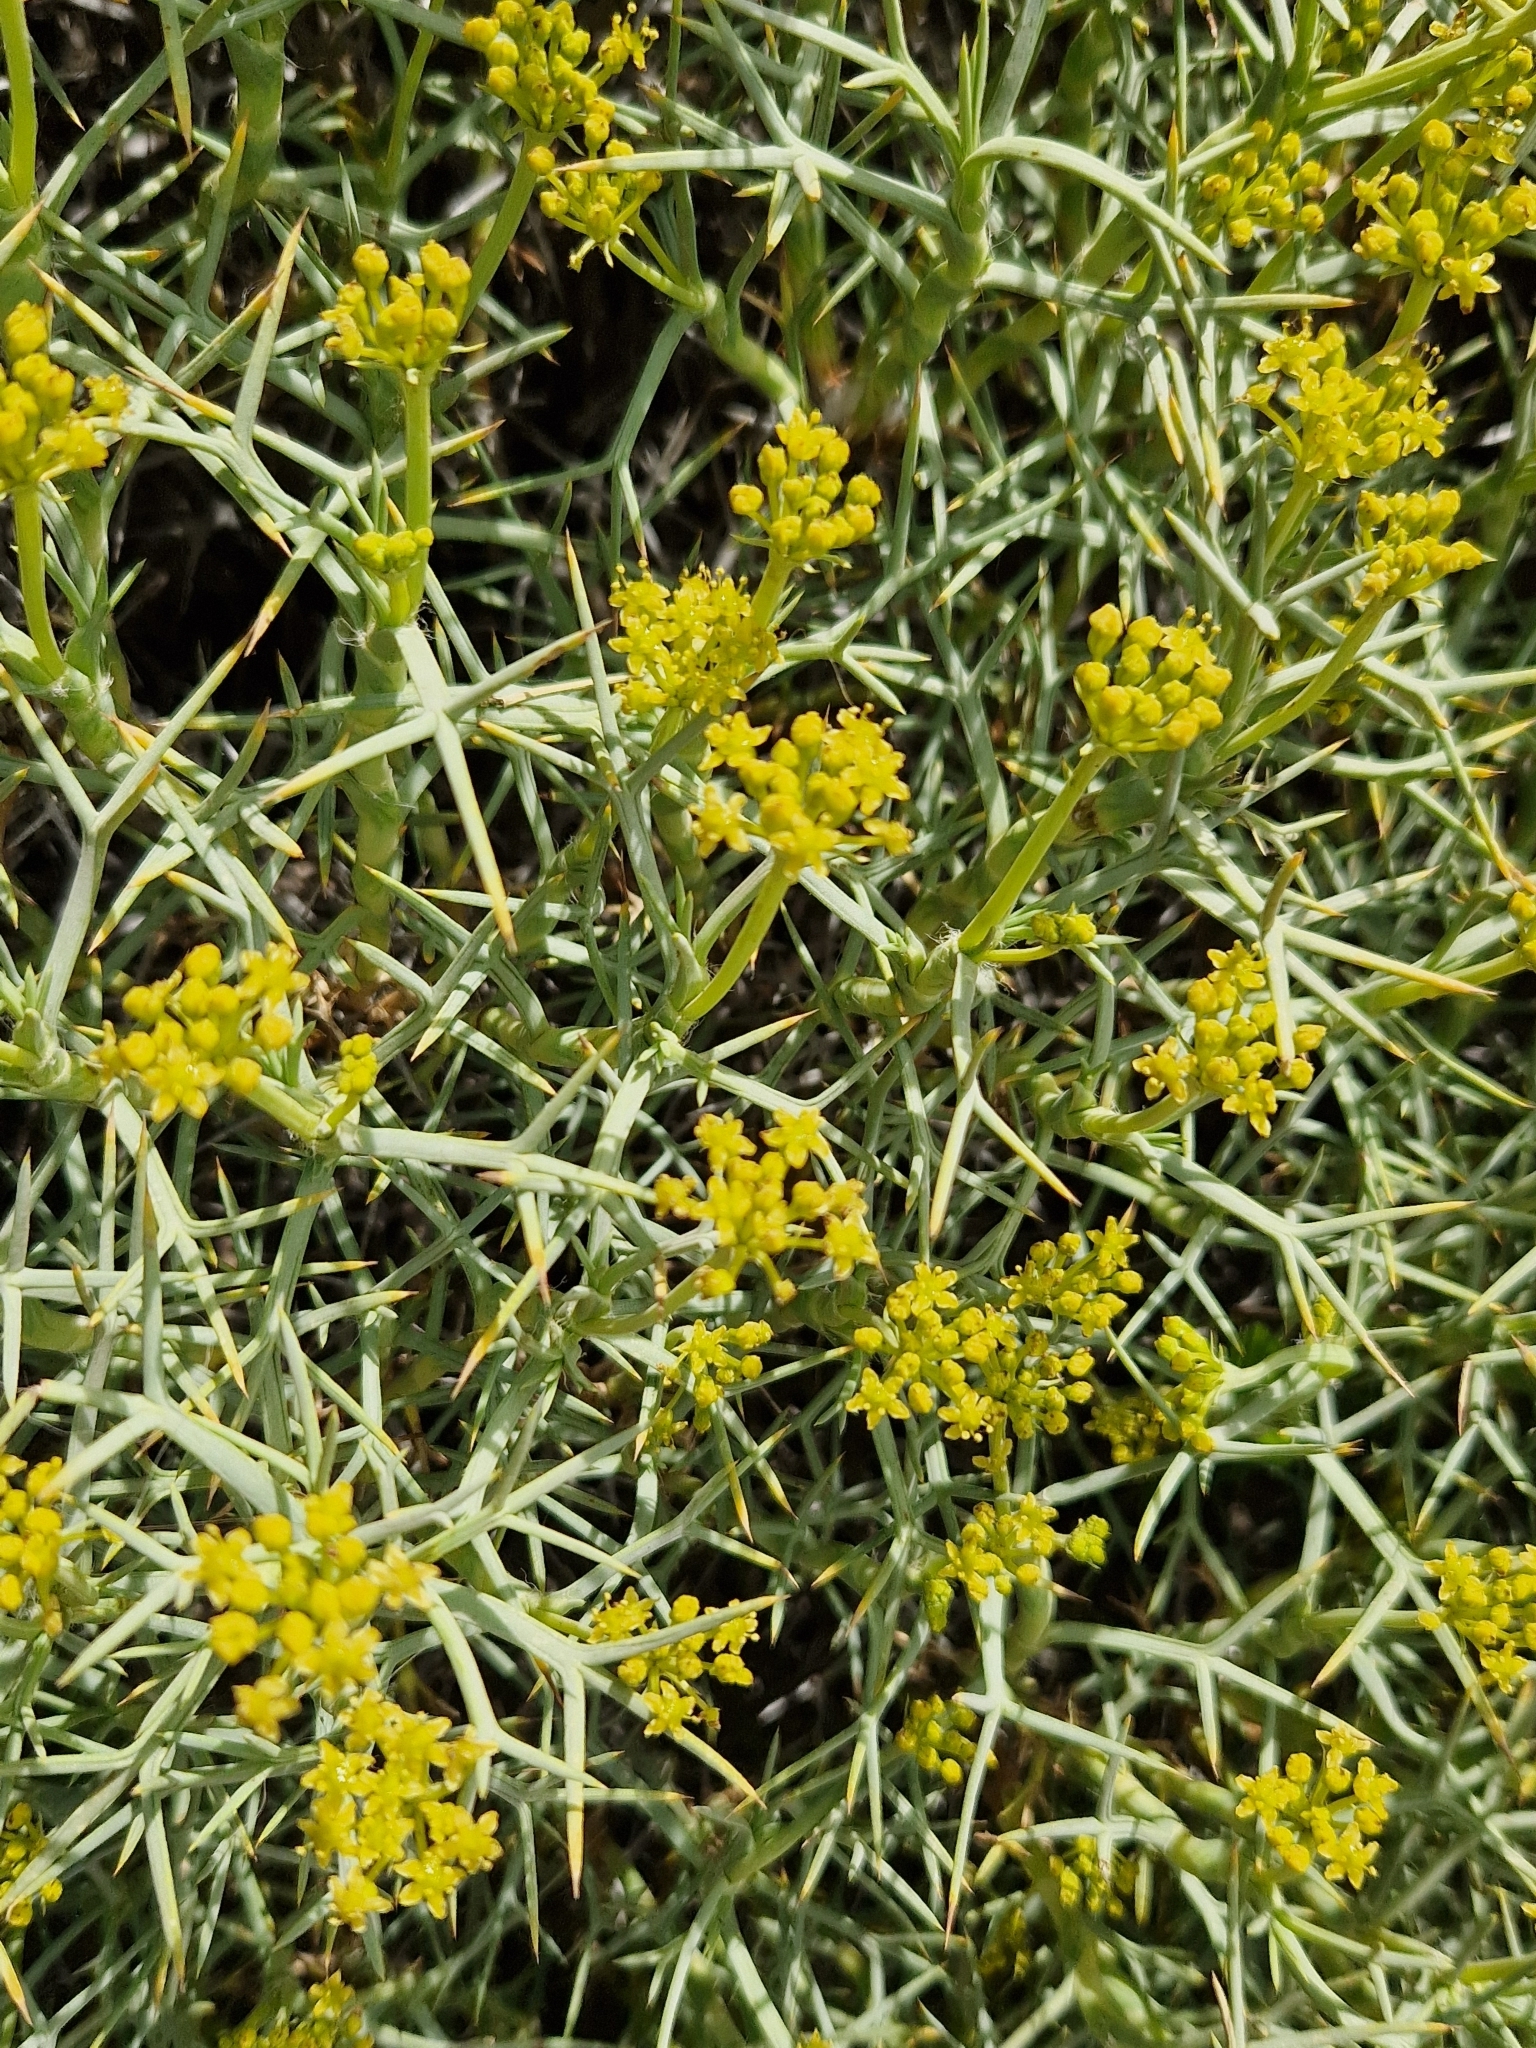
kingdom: Plantae
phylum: Tracheophyta
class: Magnoliopsida
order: Apiales
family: Apiaceae
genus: Azorella
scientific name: Azorella prolifera
